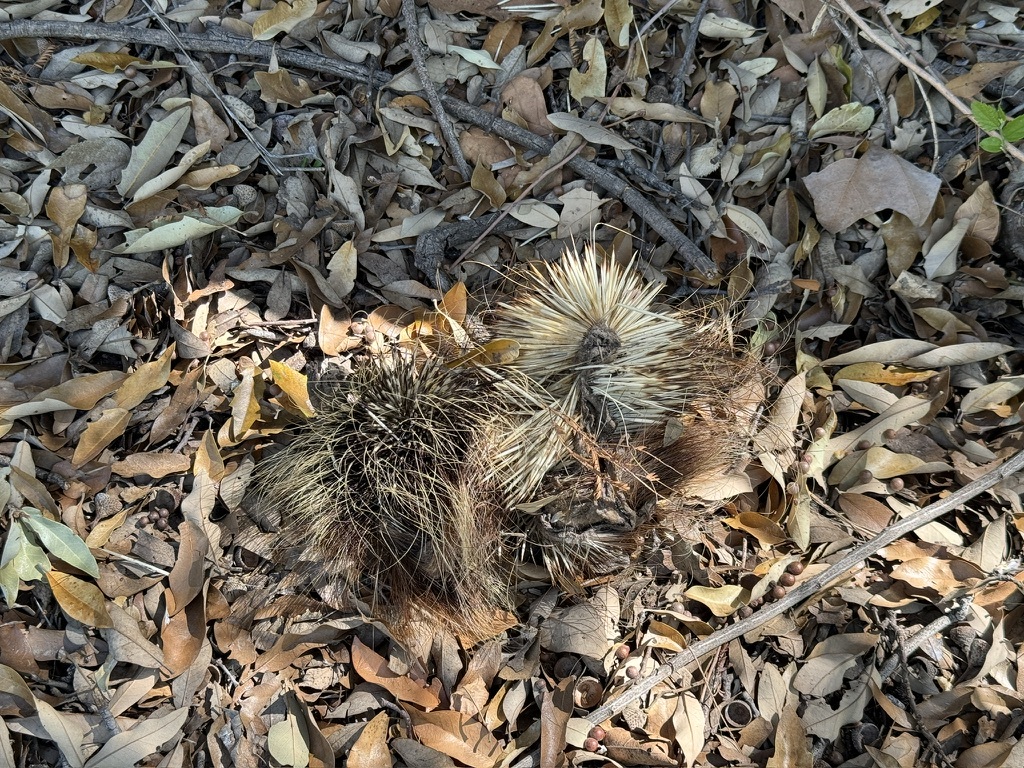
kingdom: Animalia
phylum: Chordata
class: Mammalia
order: Rodentia
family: Erethizontidae
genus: Erethizon
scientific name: Erethizon dorsatus
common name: North american porcupine
